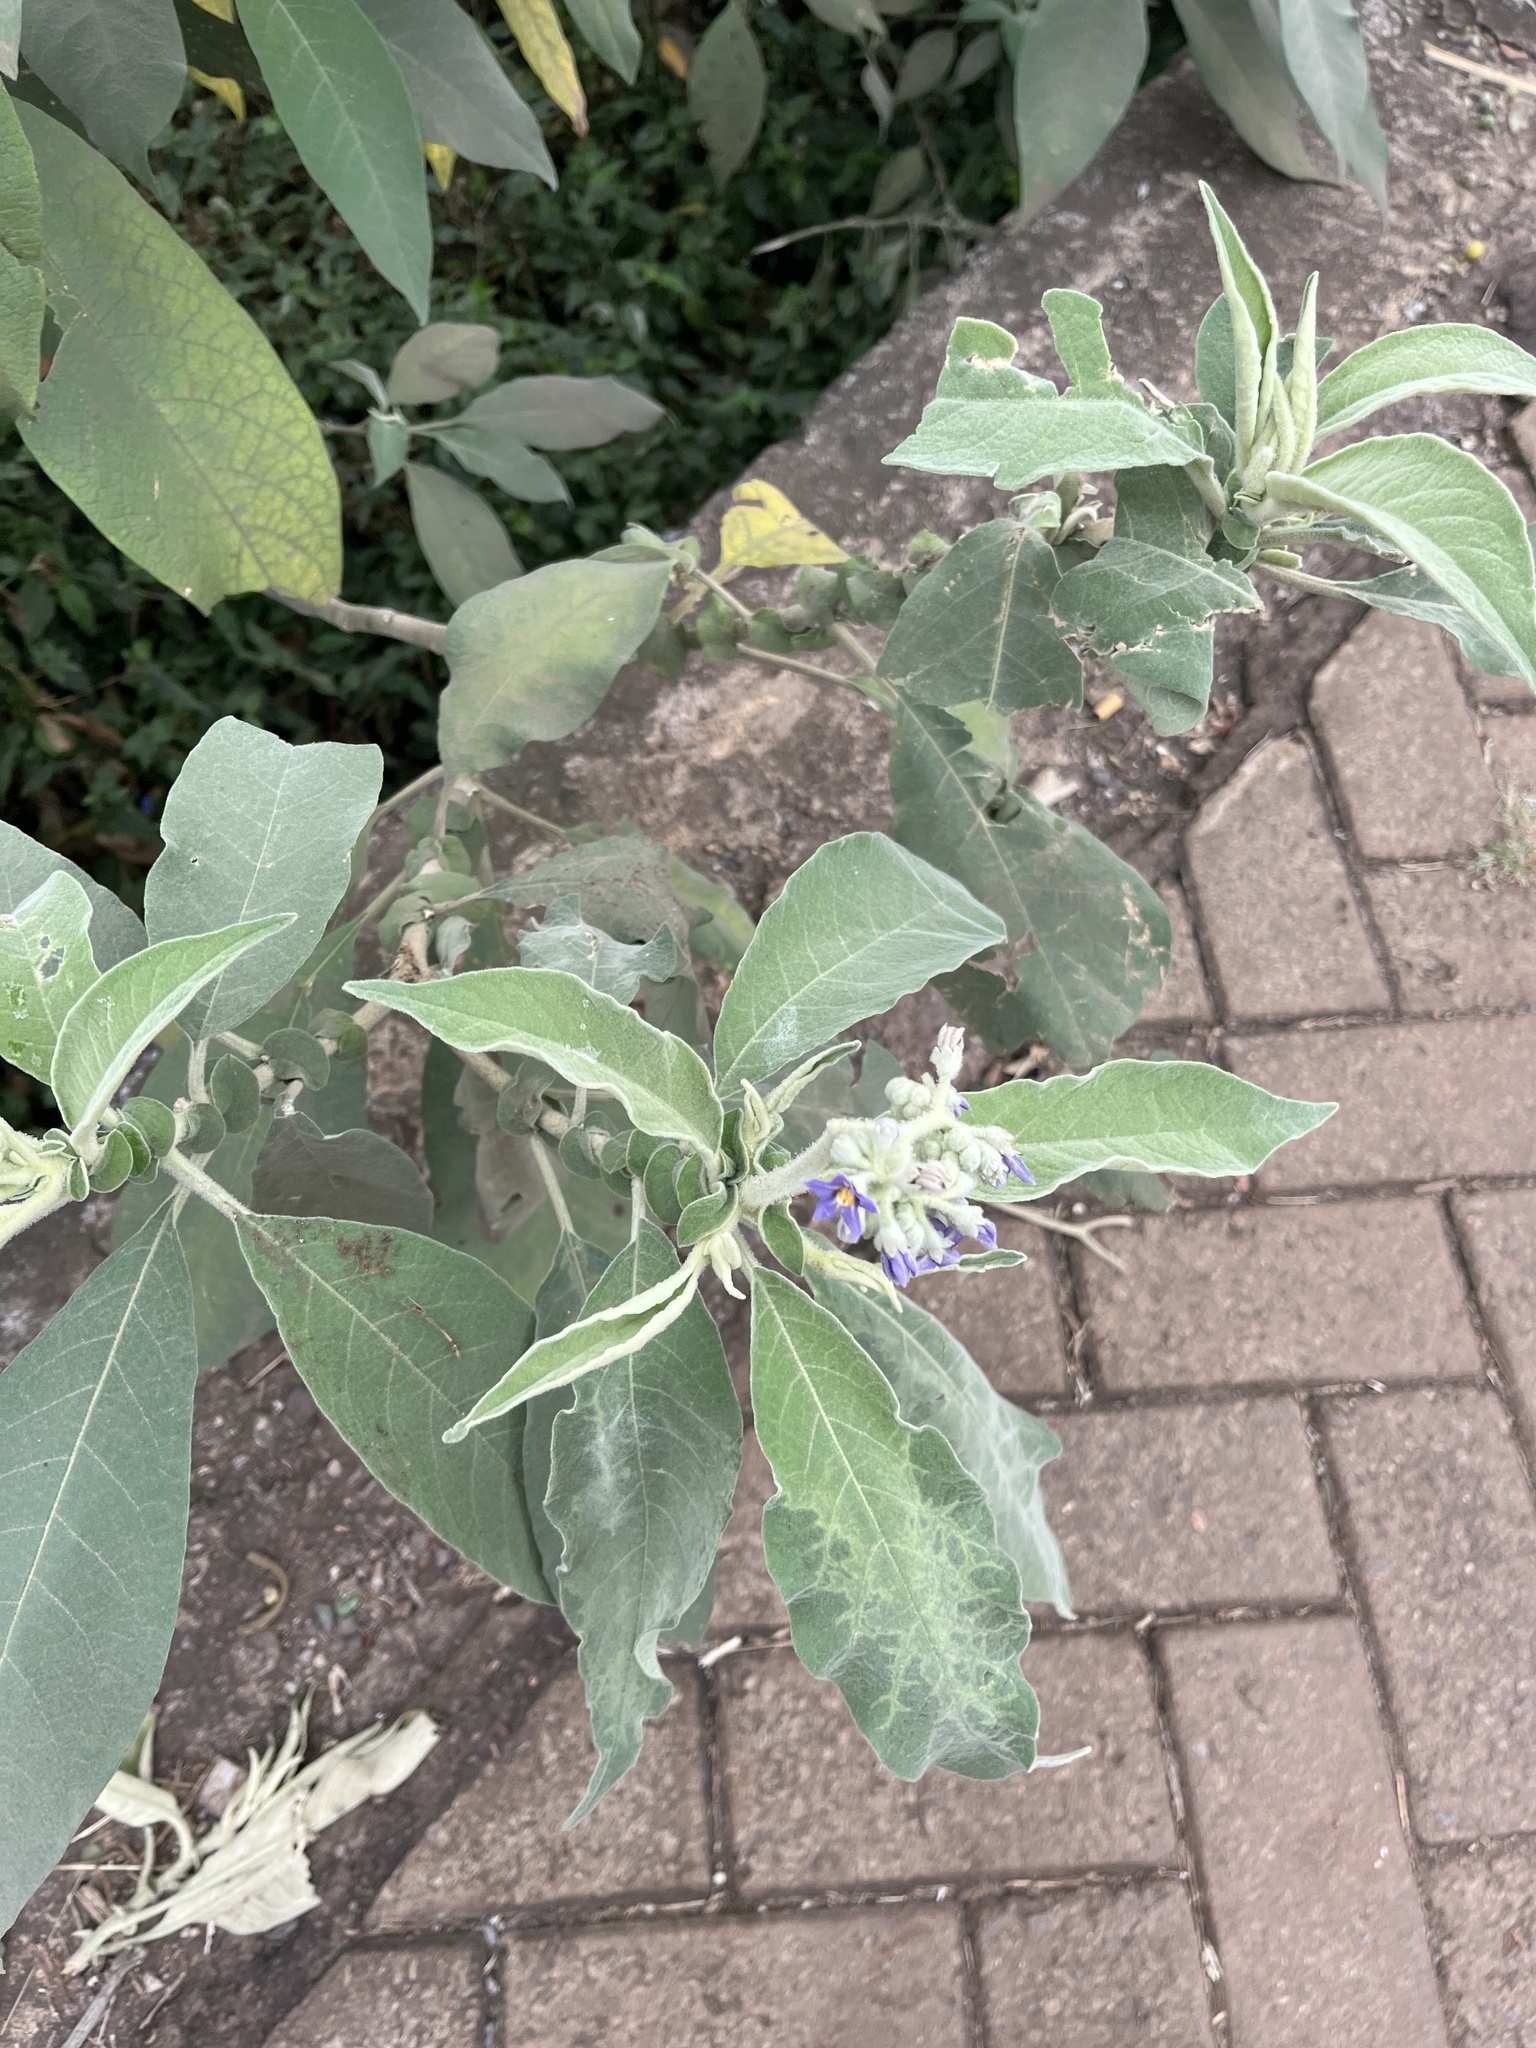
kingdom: Plantae
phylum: Tracheophyta
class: Magnoliopsida
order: Solanales
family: Solanaceae
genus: Solanum
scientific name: Solanum mauritianum
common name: Earleaf nightshade
